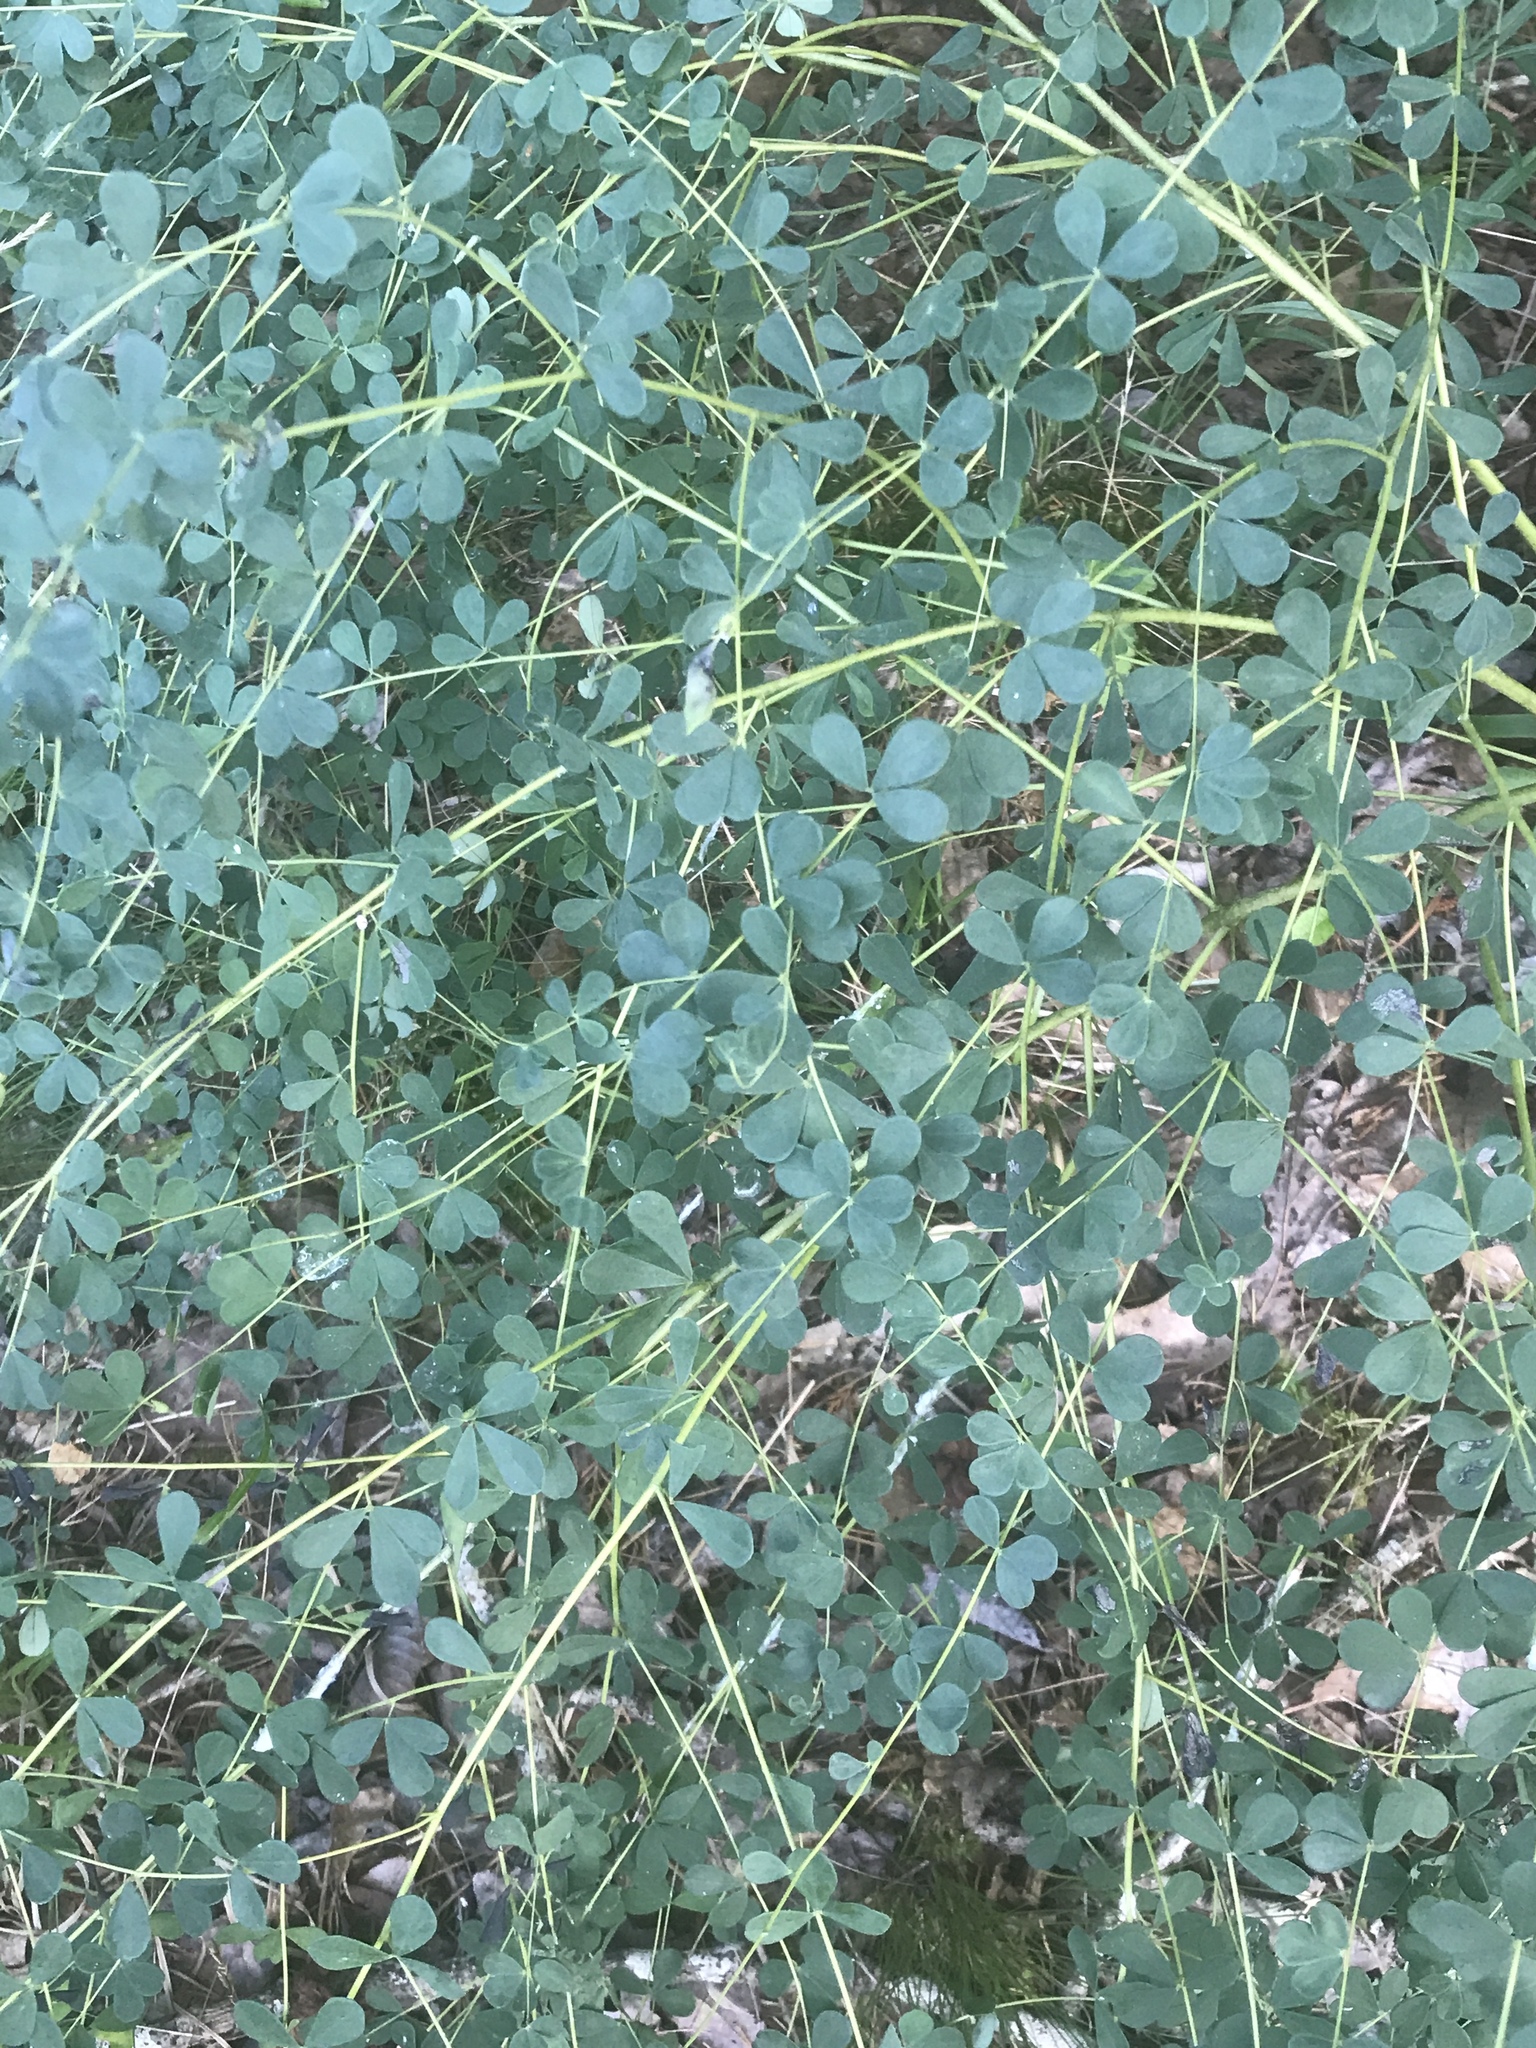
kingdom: Plantae
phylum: Tracheophyta
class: Magnoliopsida
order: Fabales
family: Fabaceae
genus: Baptisia
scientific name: Baptisia tinctoria
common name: Wild indigo
